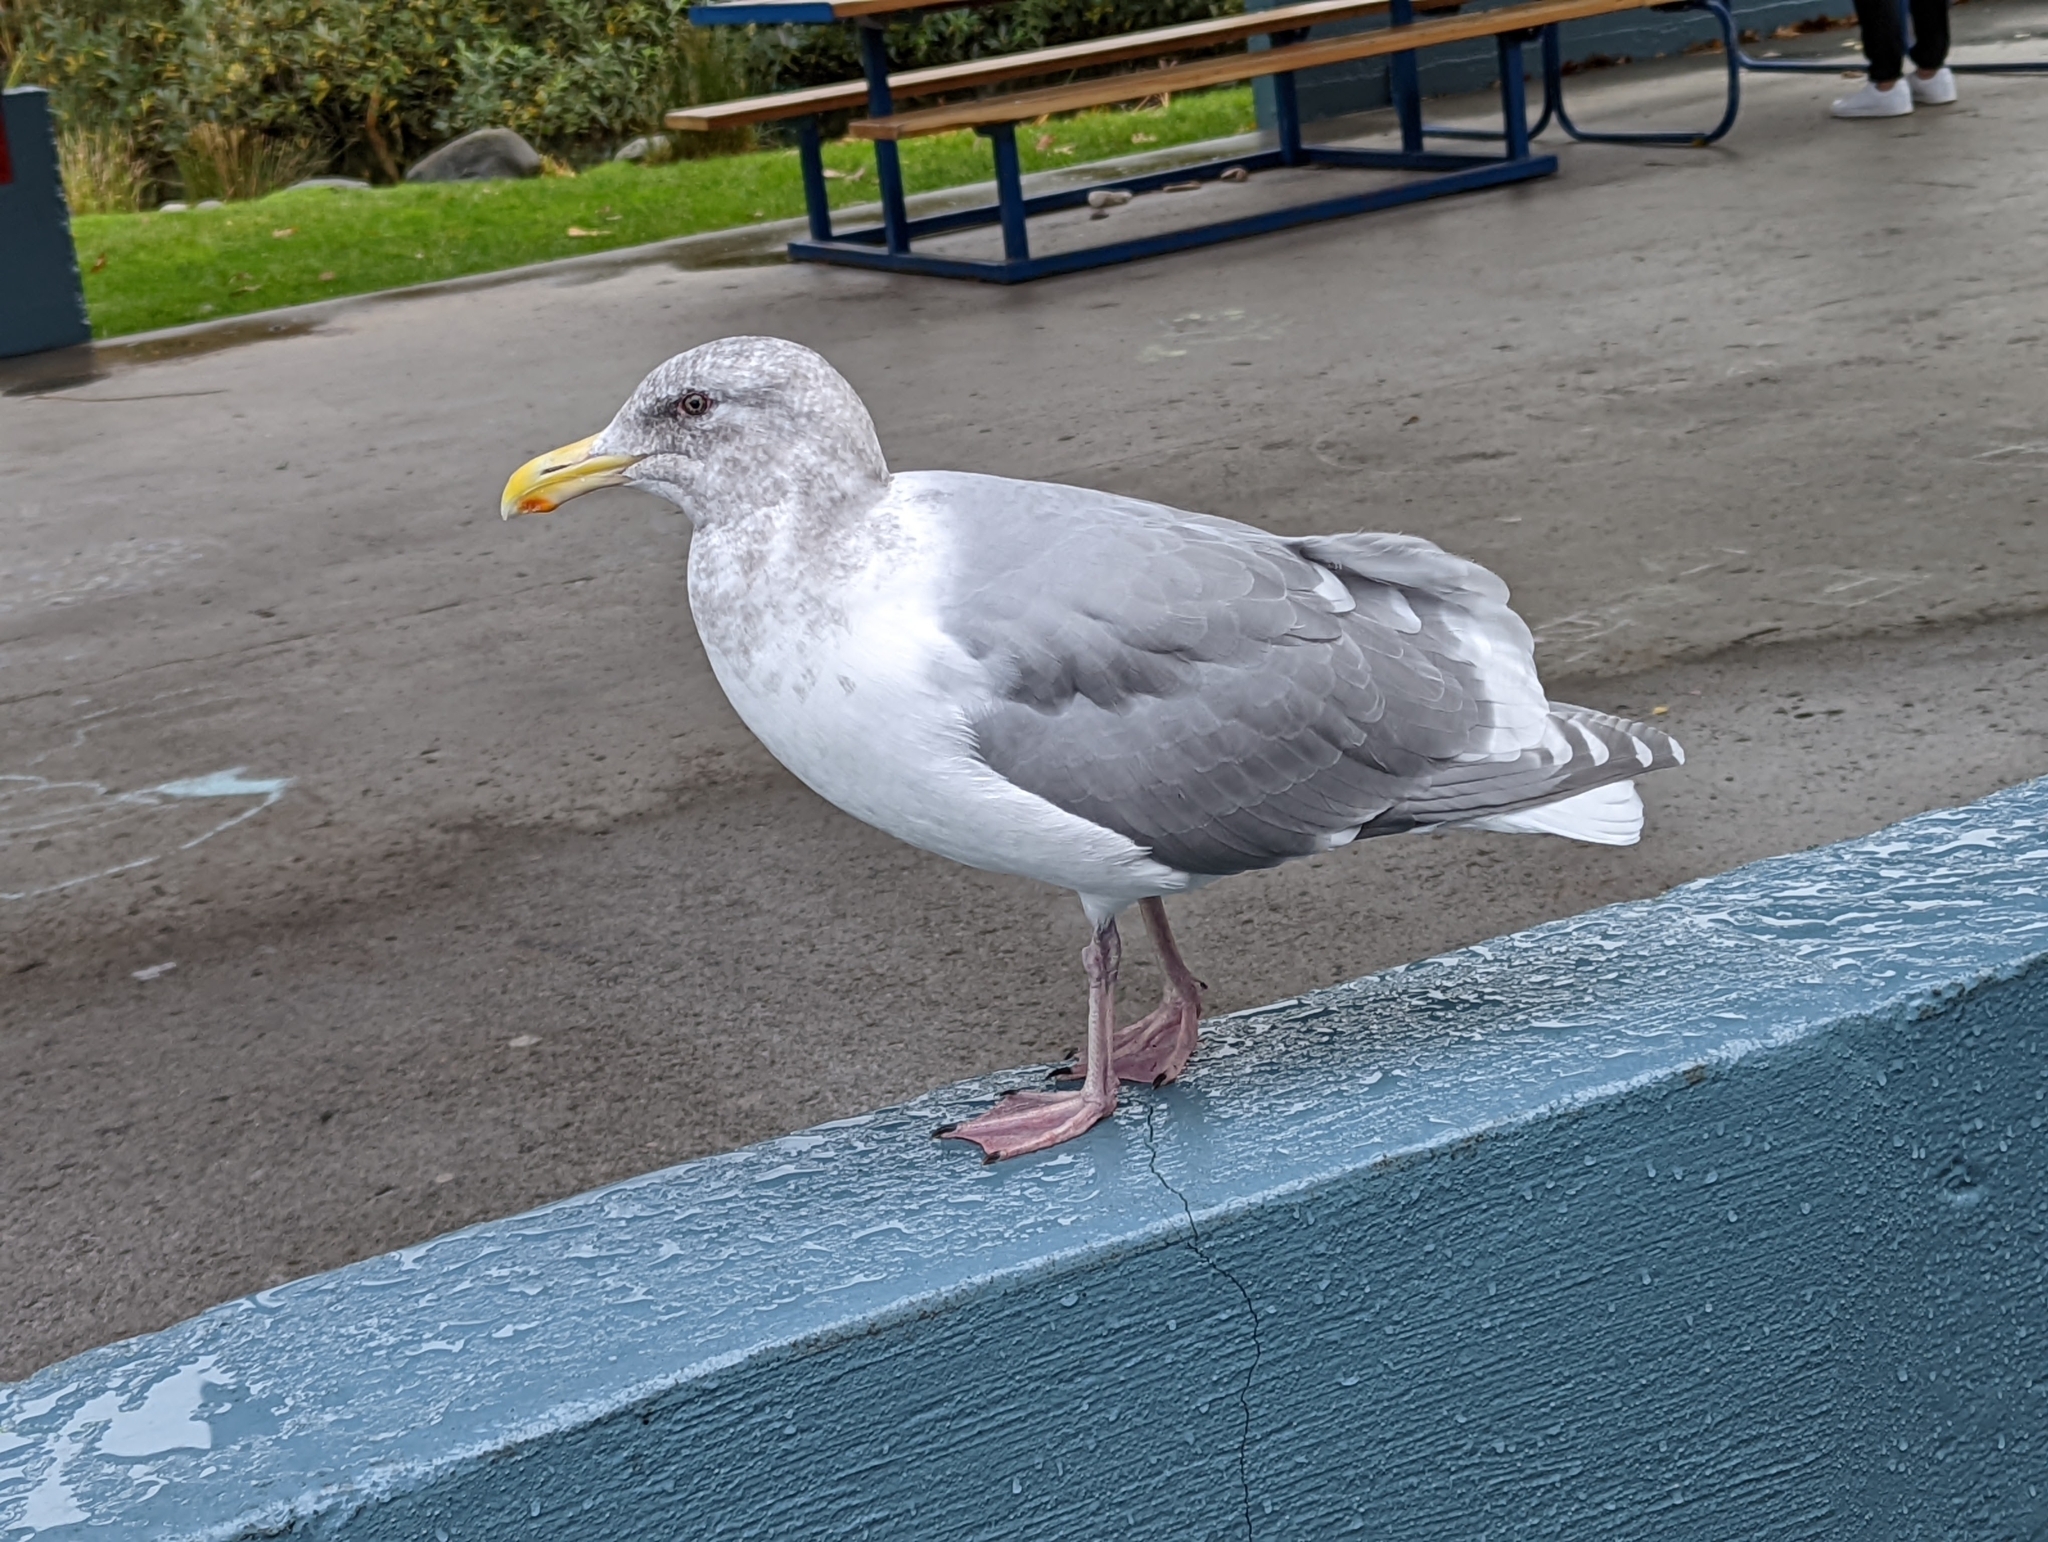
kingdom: Animalia
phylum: Chordata
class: Aves
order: Charadriiformes
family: Laridae
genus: Larus
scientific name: Larus
